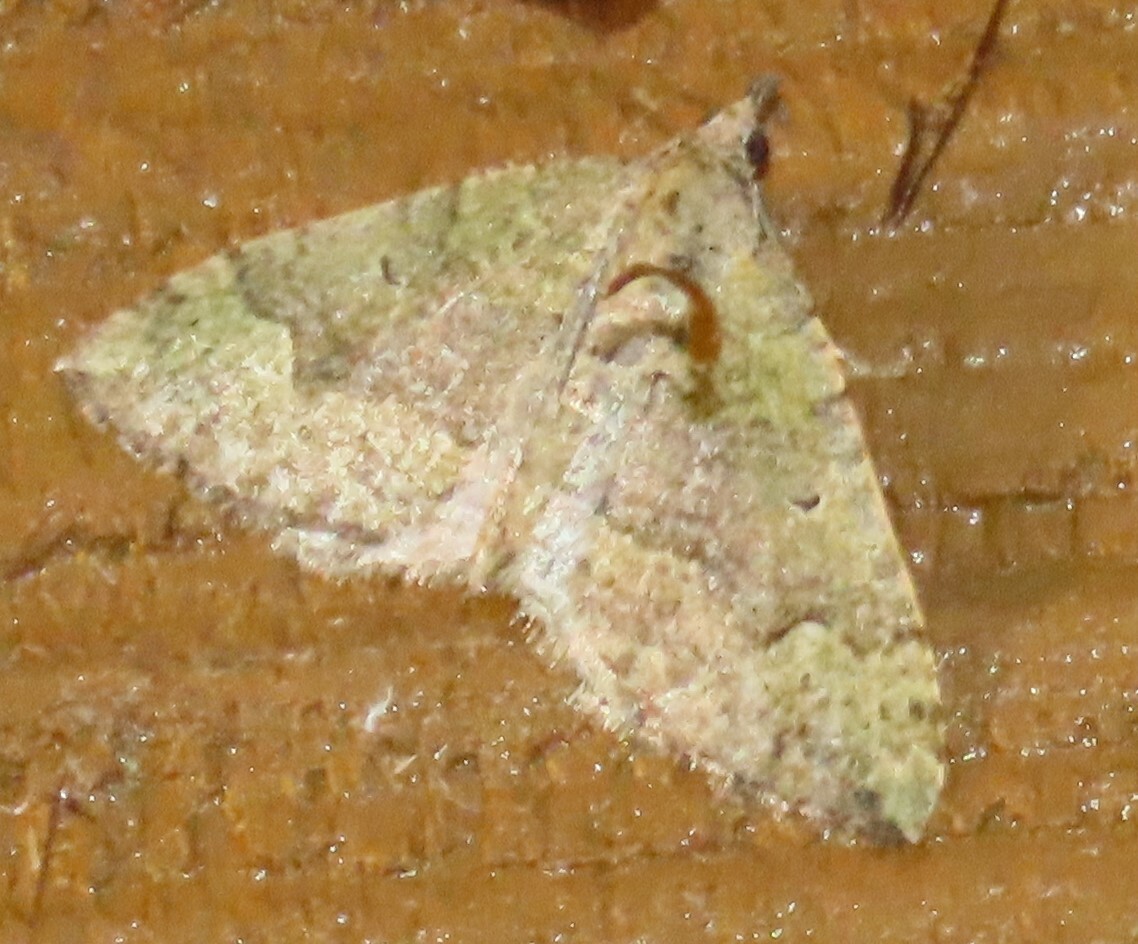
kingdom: Animalia
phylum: Arthropoda
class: Insecta
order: Lepidoptera
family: Geometridae
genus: Epyaxa
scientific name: Epyaxa rosearia
